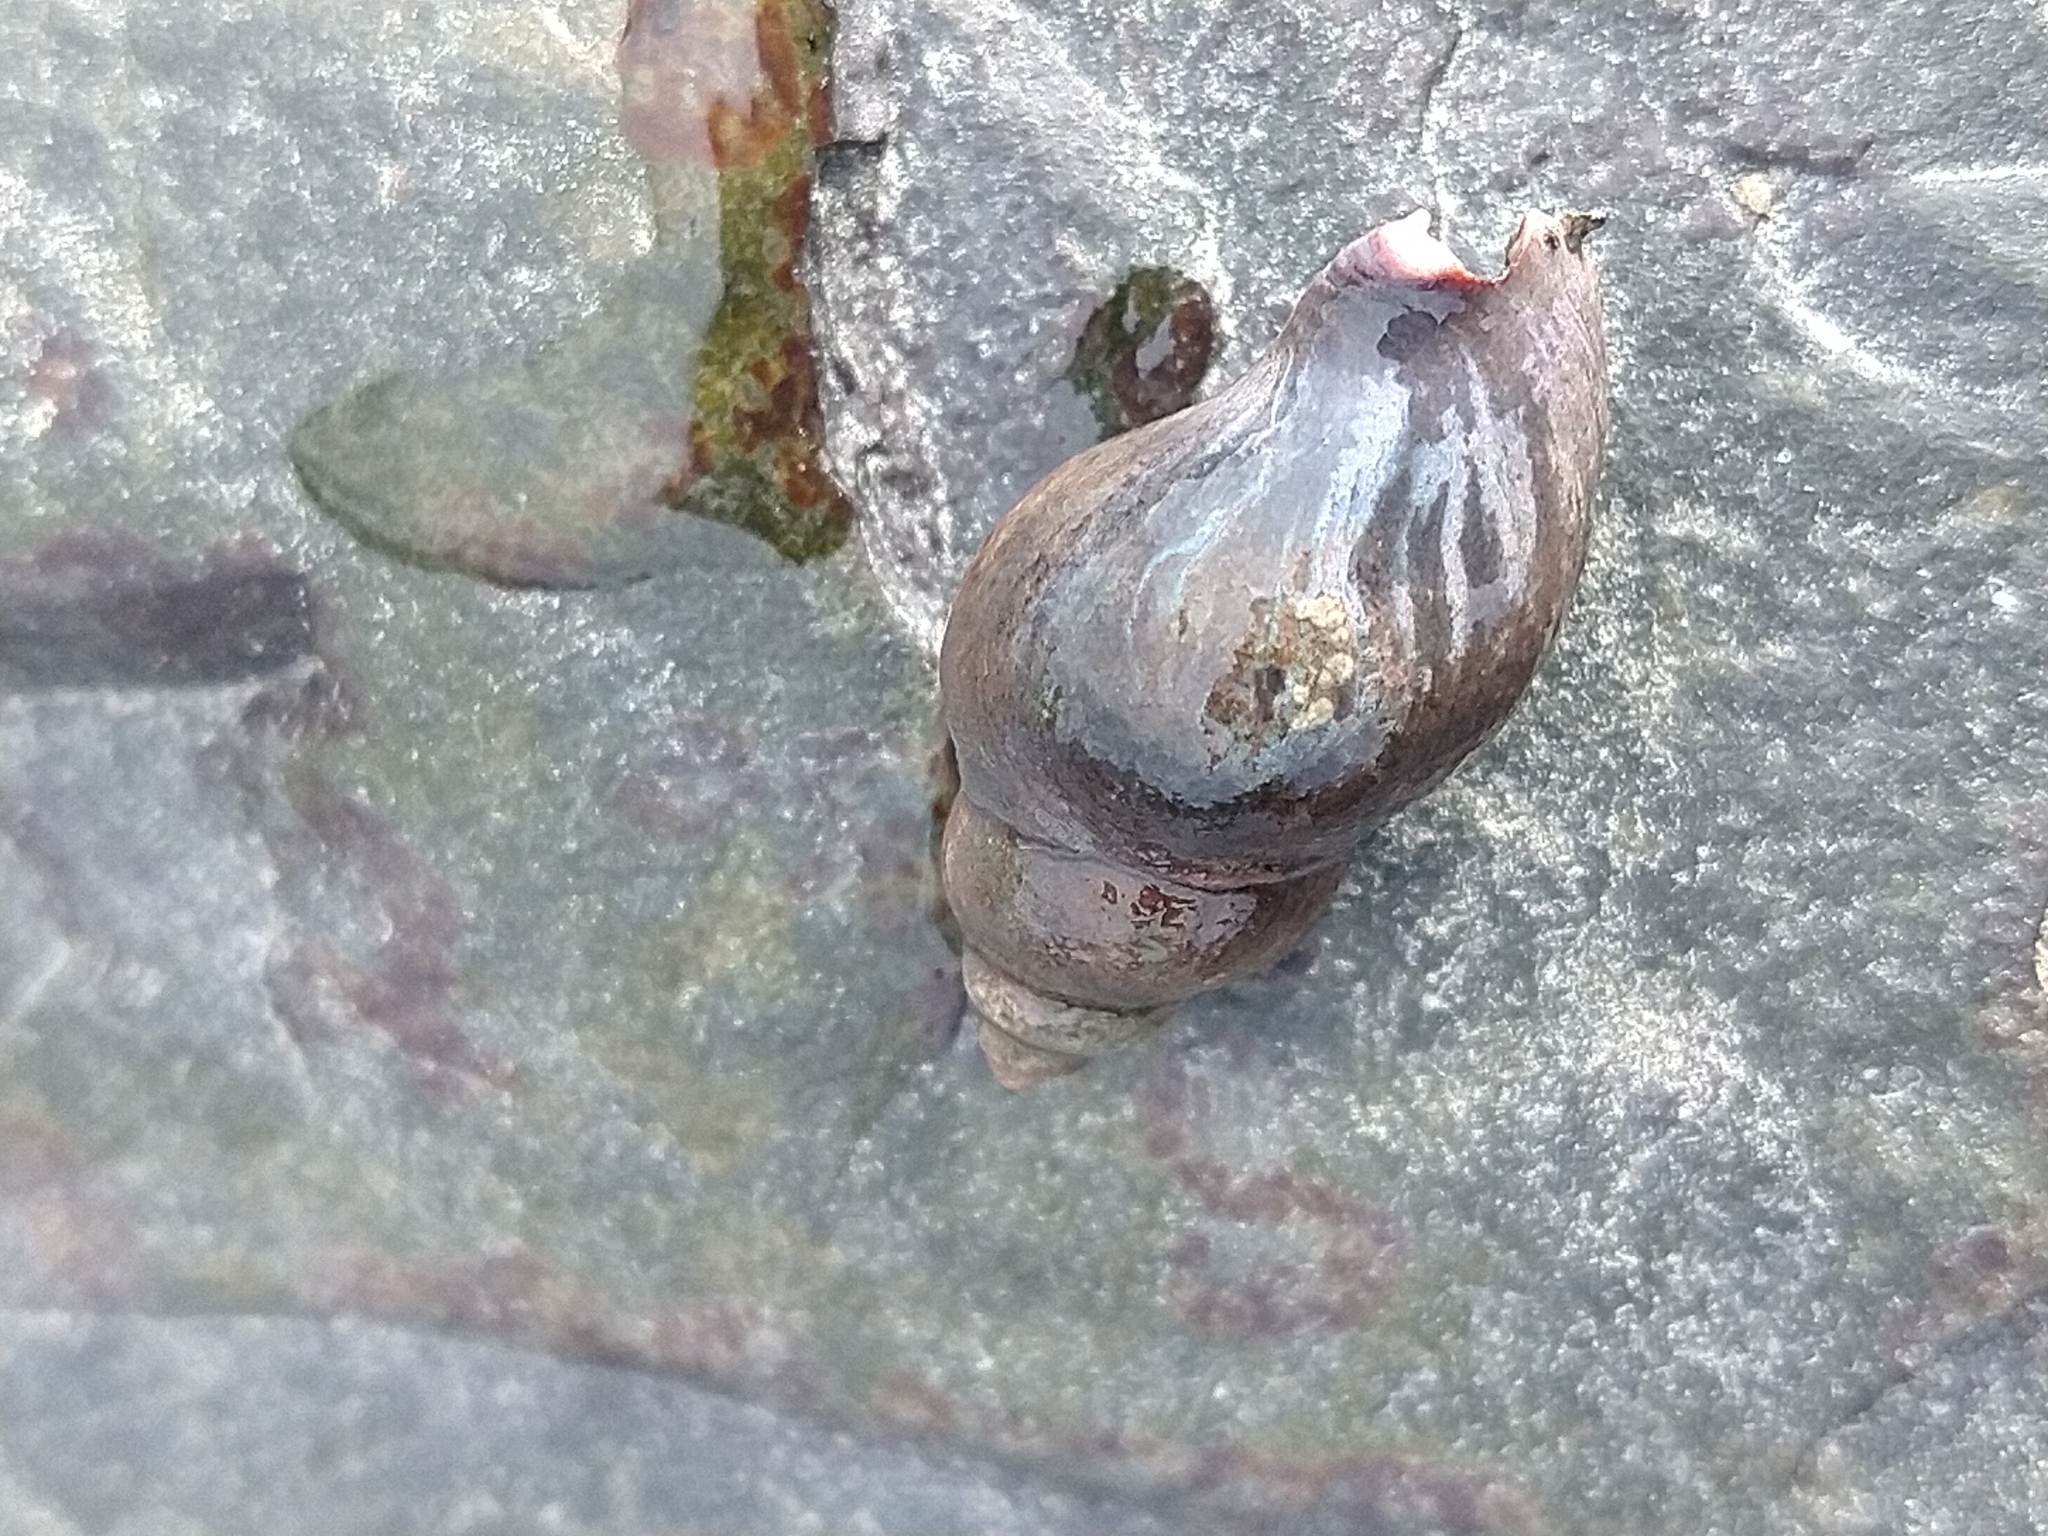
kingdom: Animalia
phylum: Mollusca
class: Gastropoda
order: Neogastropoda
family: Cominellidae
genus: Pareuthria
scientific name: Pareuthria fuscata
